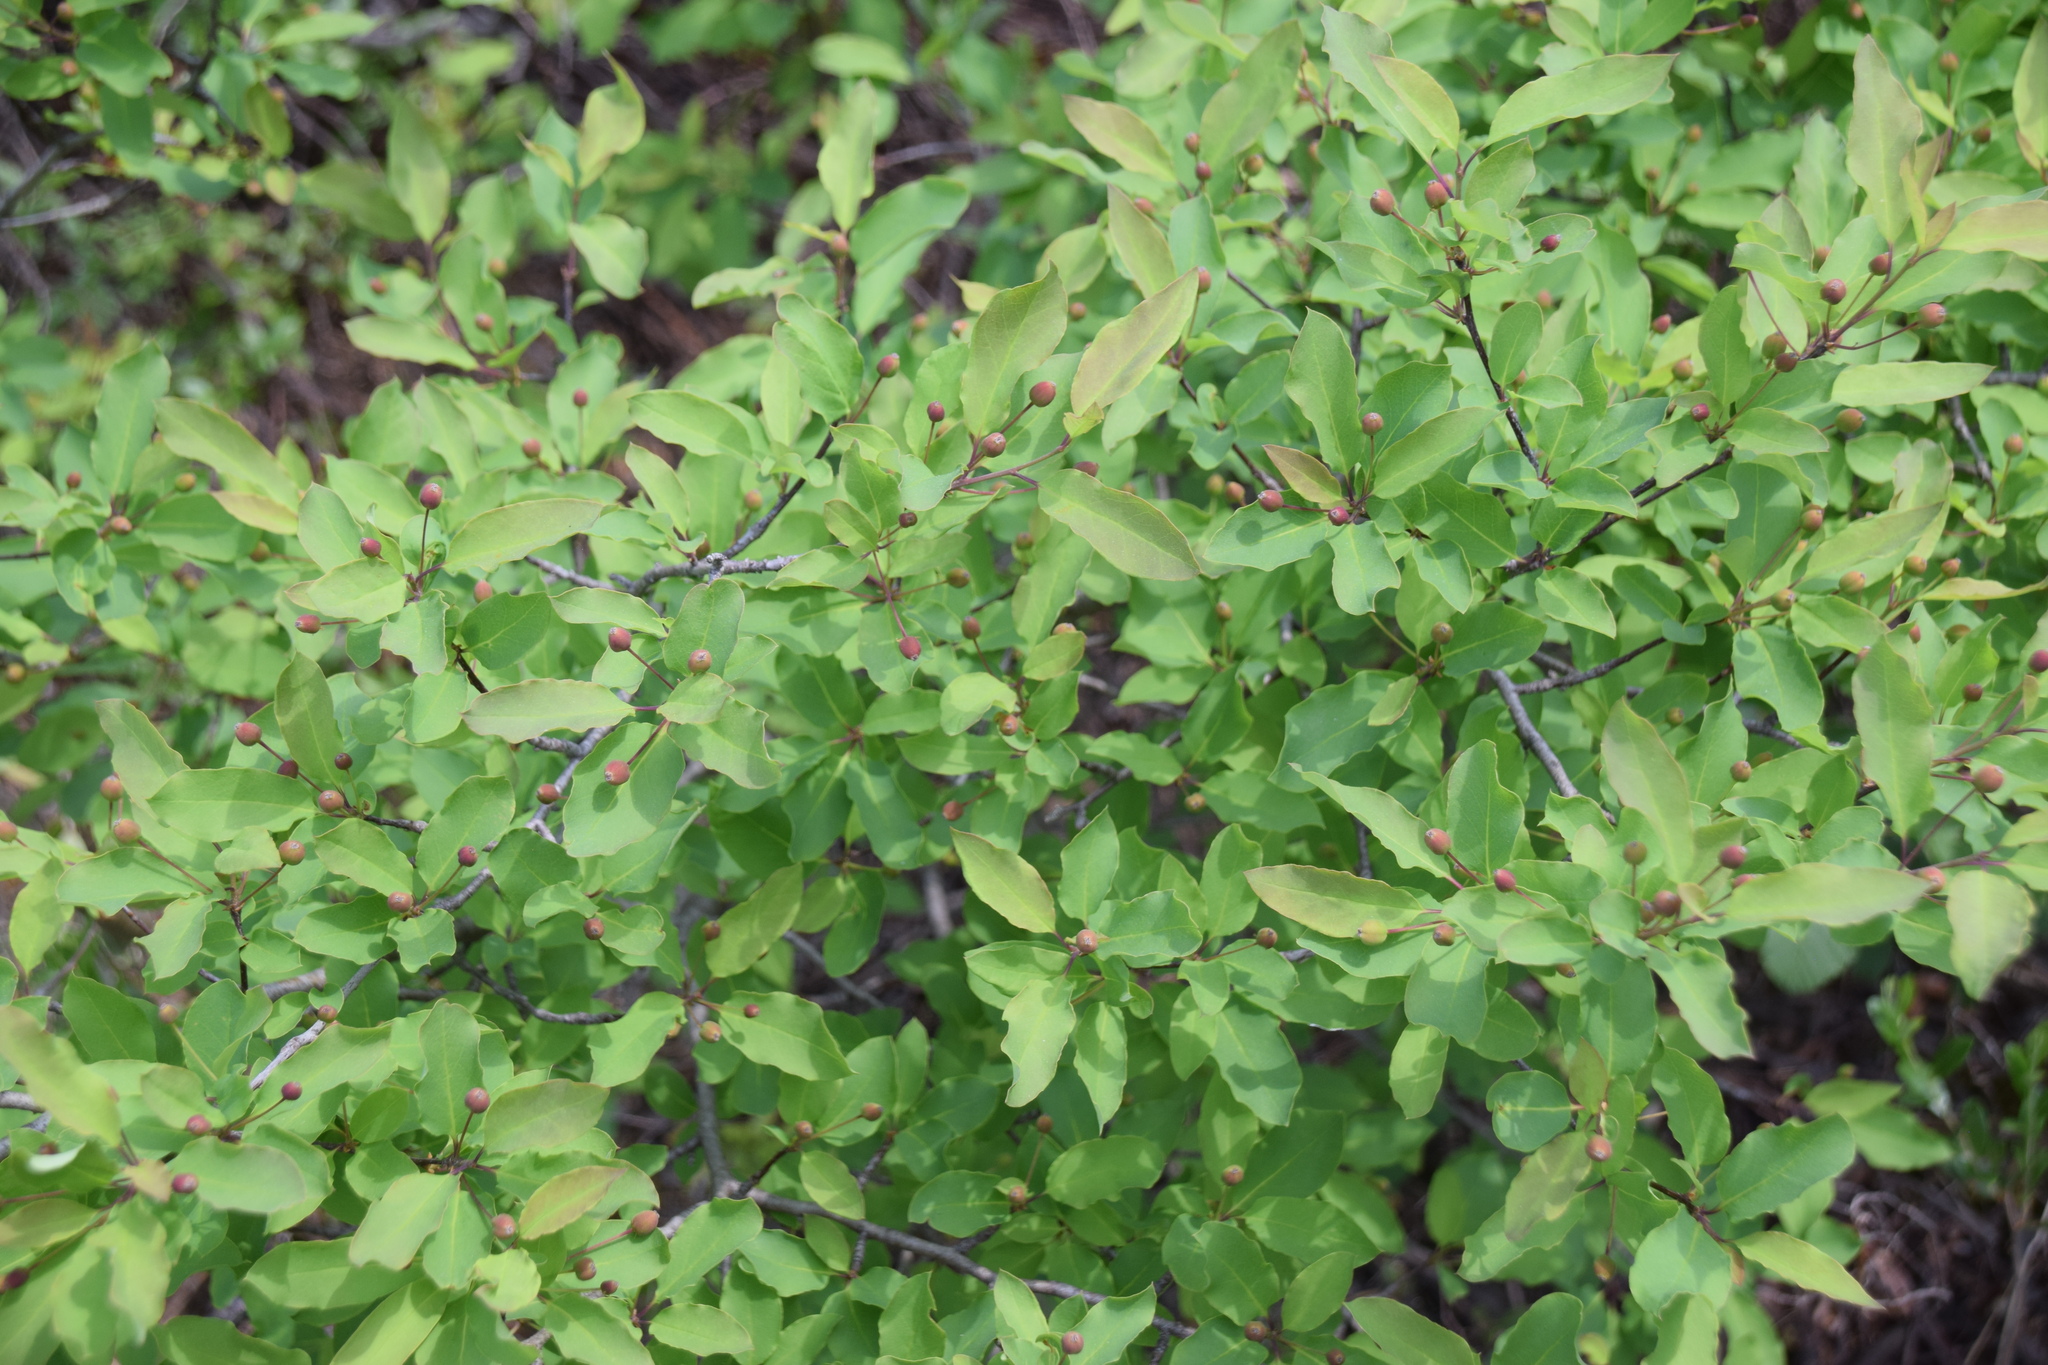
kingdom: Plantae
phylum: Tracheophyta
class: Magnoliopsida
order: Aquifoliales
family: Aquifoliaceae
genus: Ilex
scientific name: Ilex mucronata
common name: Catberry
